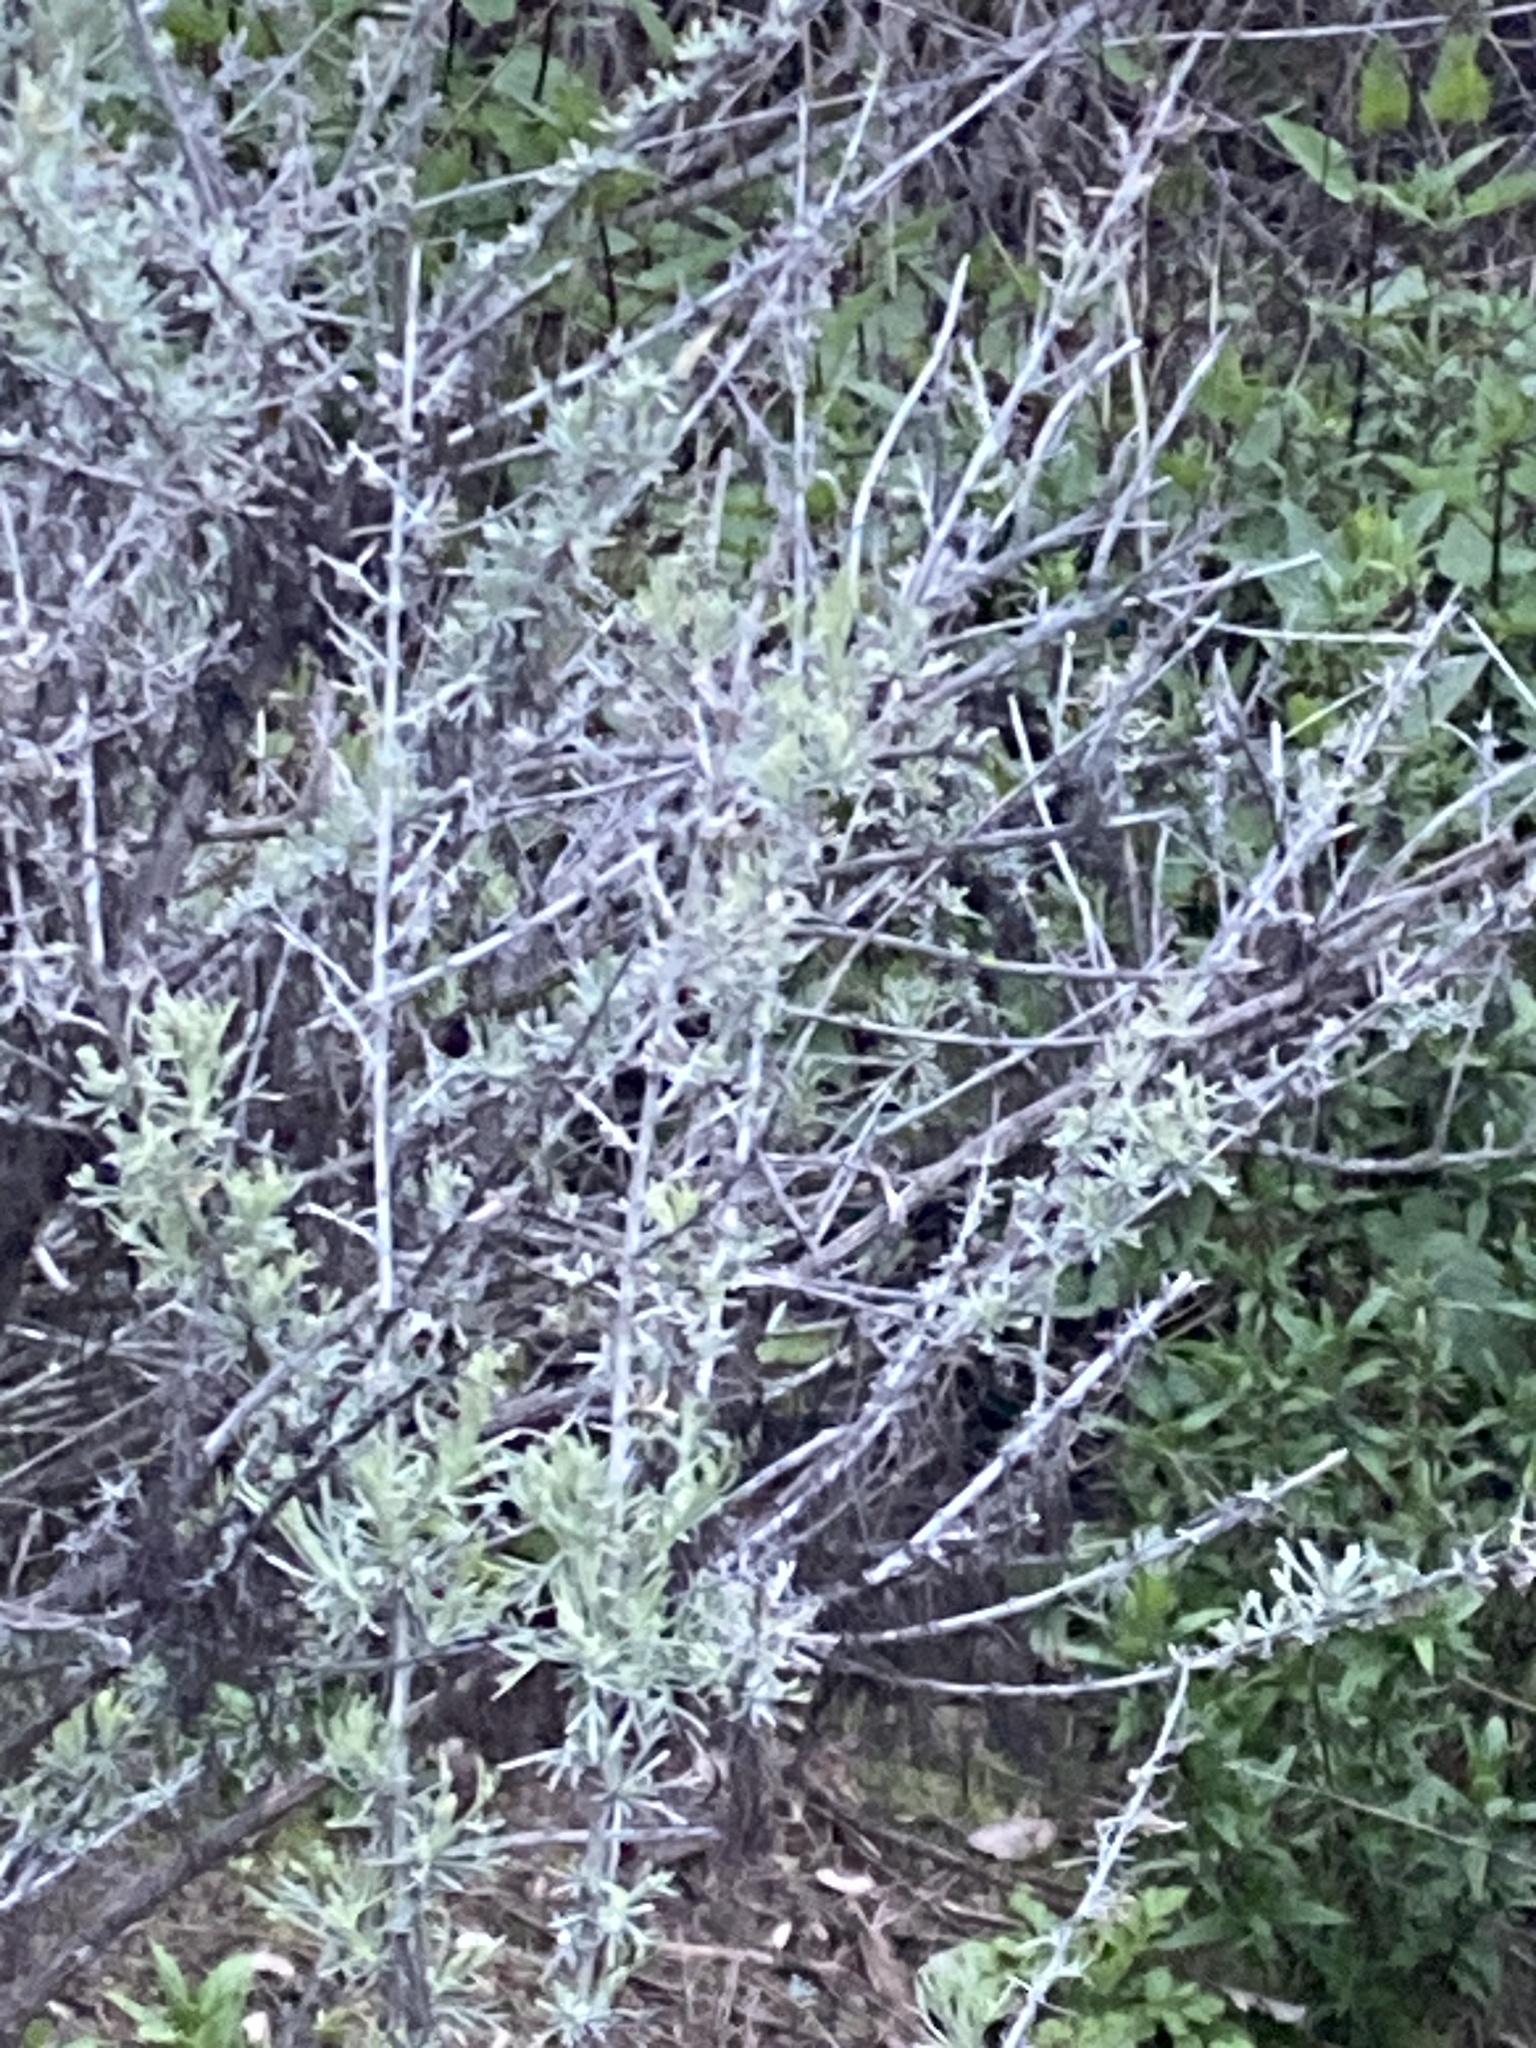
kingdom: Plantae
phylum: Tracheophyta
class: Magnoliopsida
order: Asterales
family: Asteraceae
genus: Artemisia
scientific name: Artemisia californica
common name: California sagebrush
